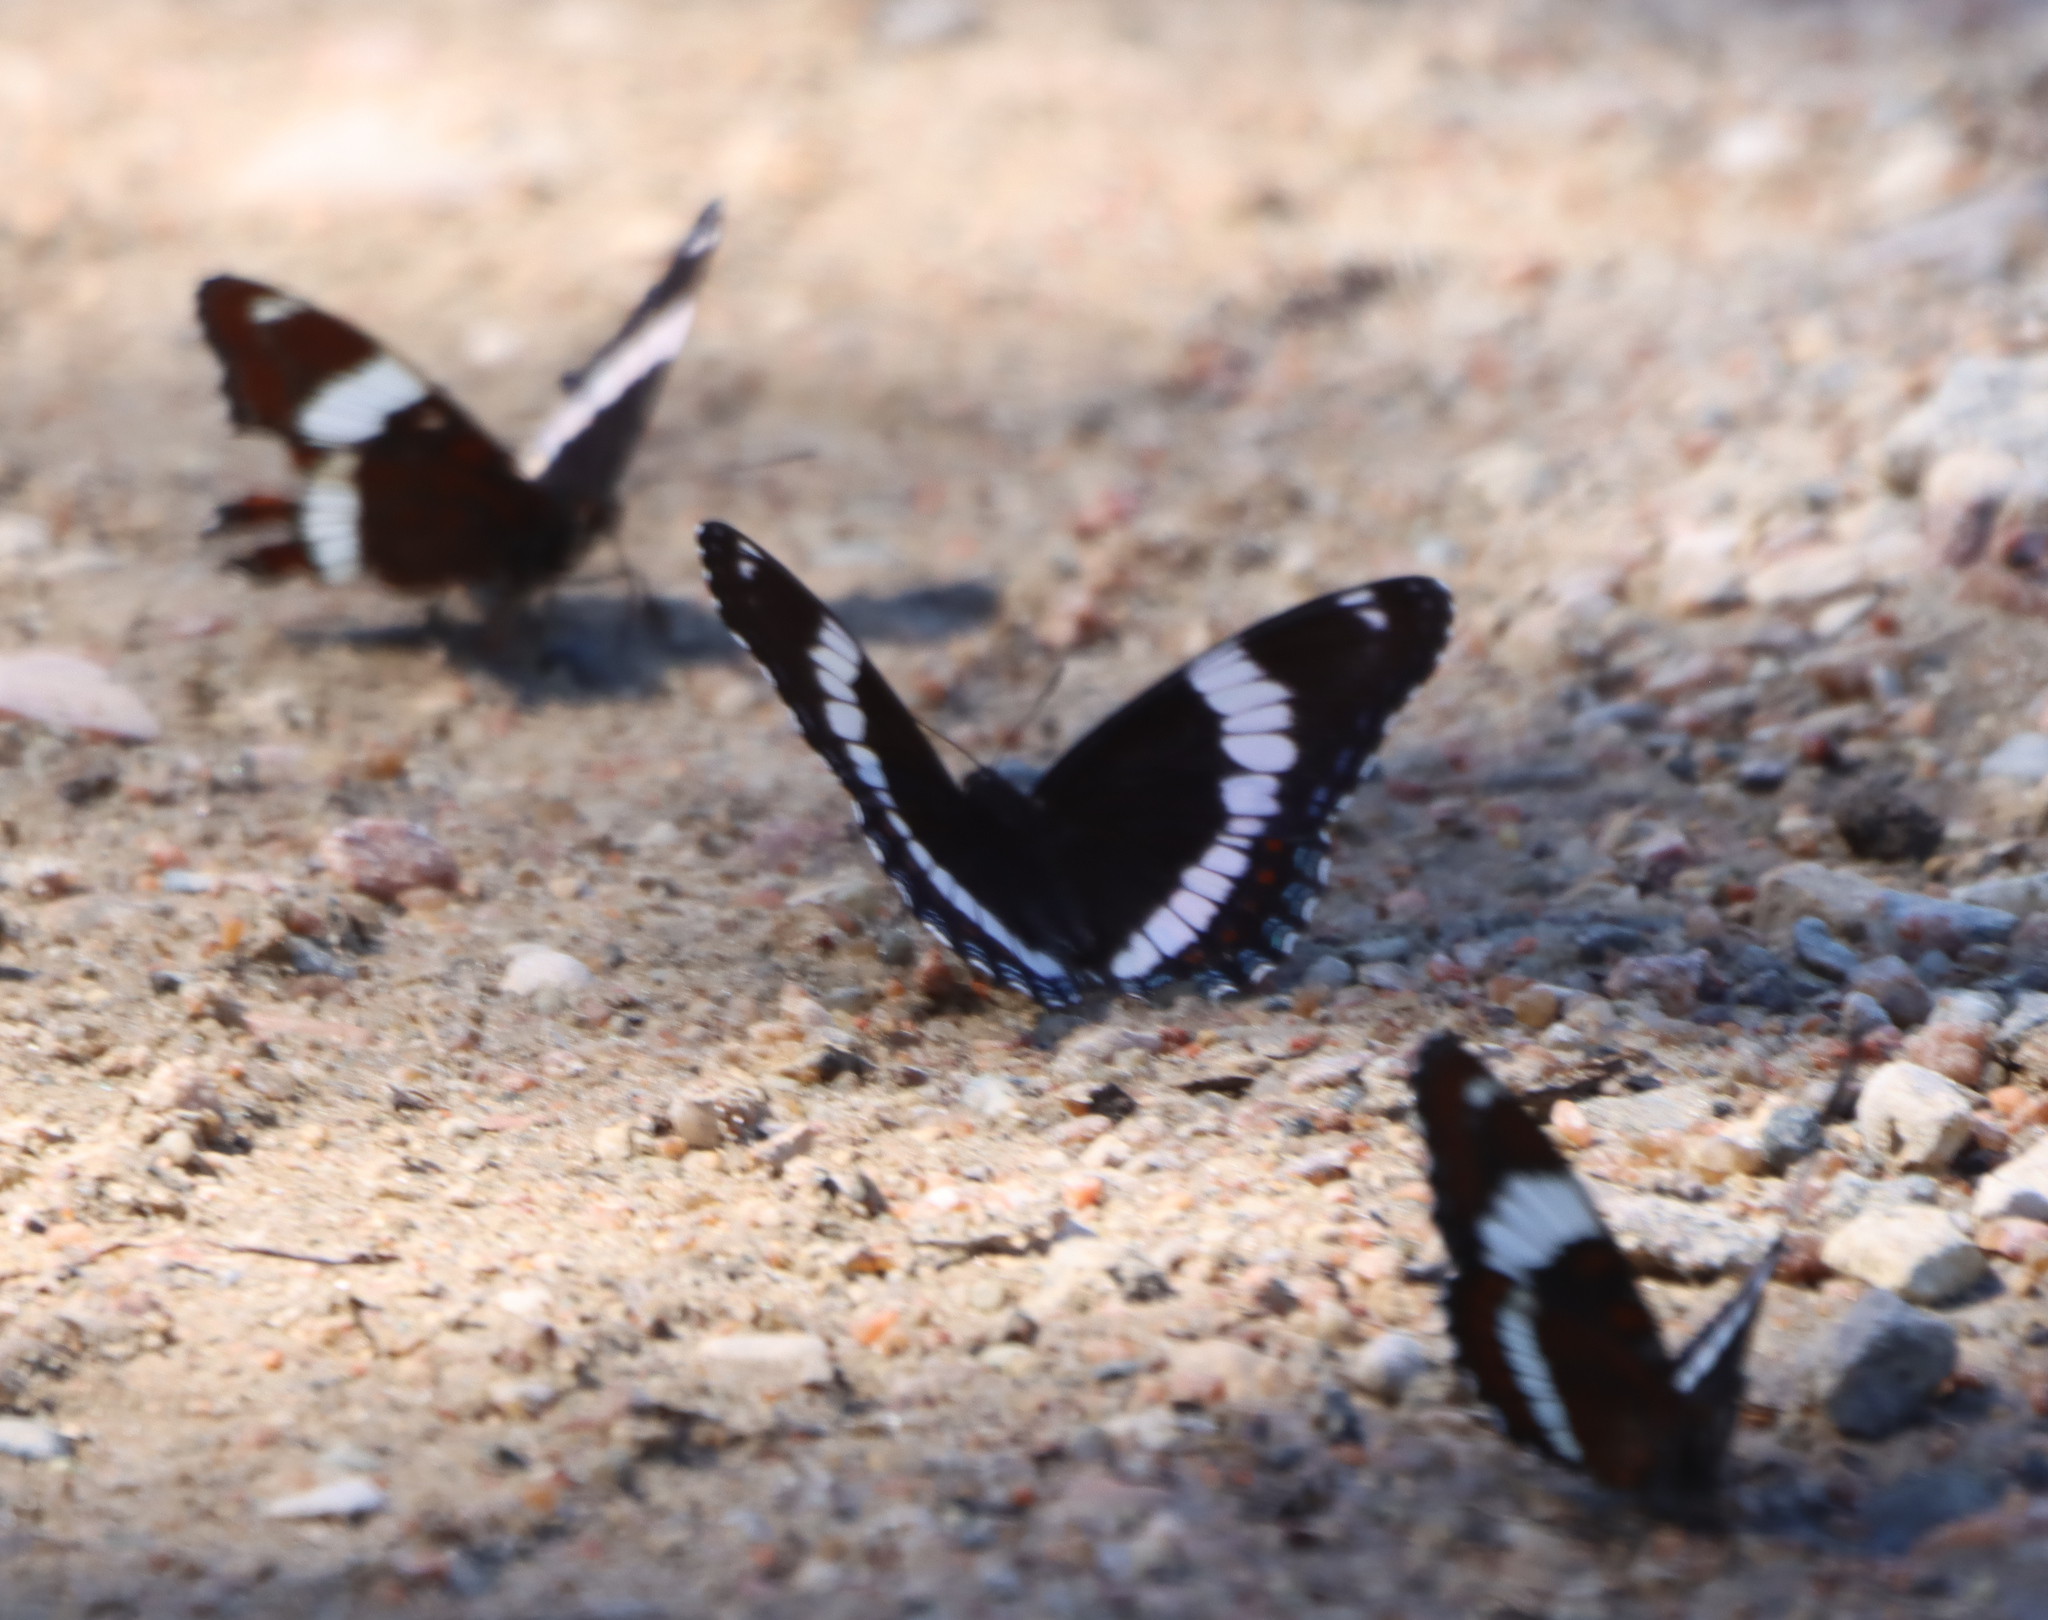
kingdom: Animalia
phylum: Arthropoda
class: Insecta
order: Lepidoptera
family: Nymphalidae
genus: Limenitis
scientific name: Limenitis arthemis
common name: Red-spotted admiral
